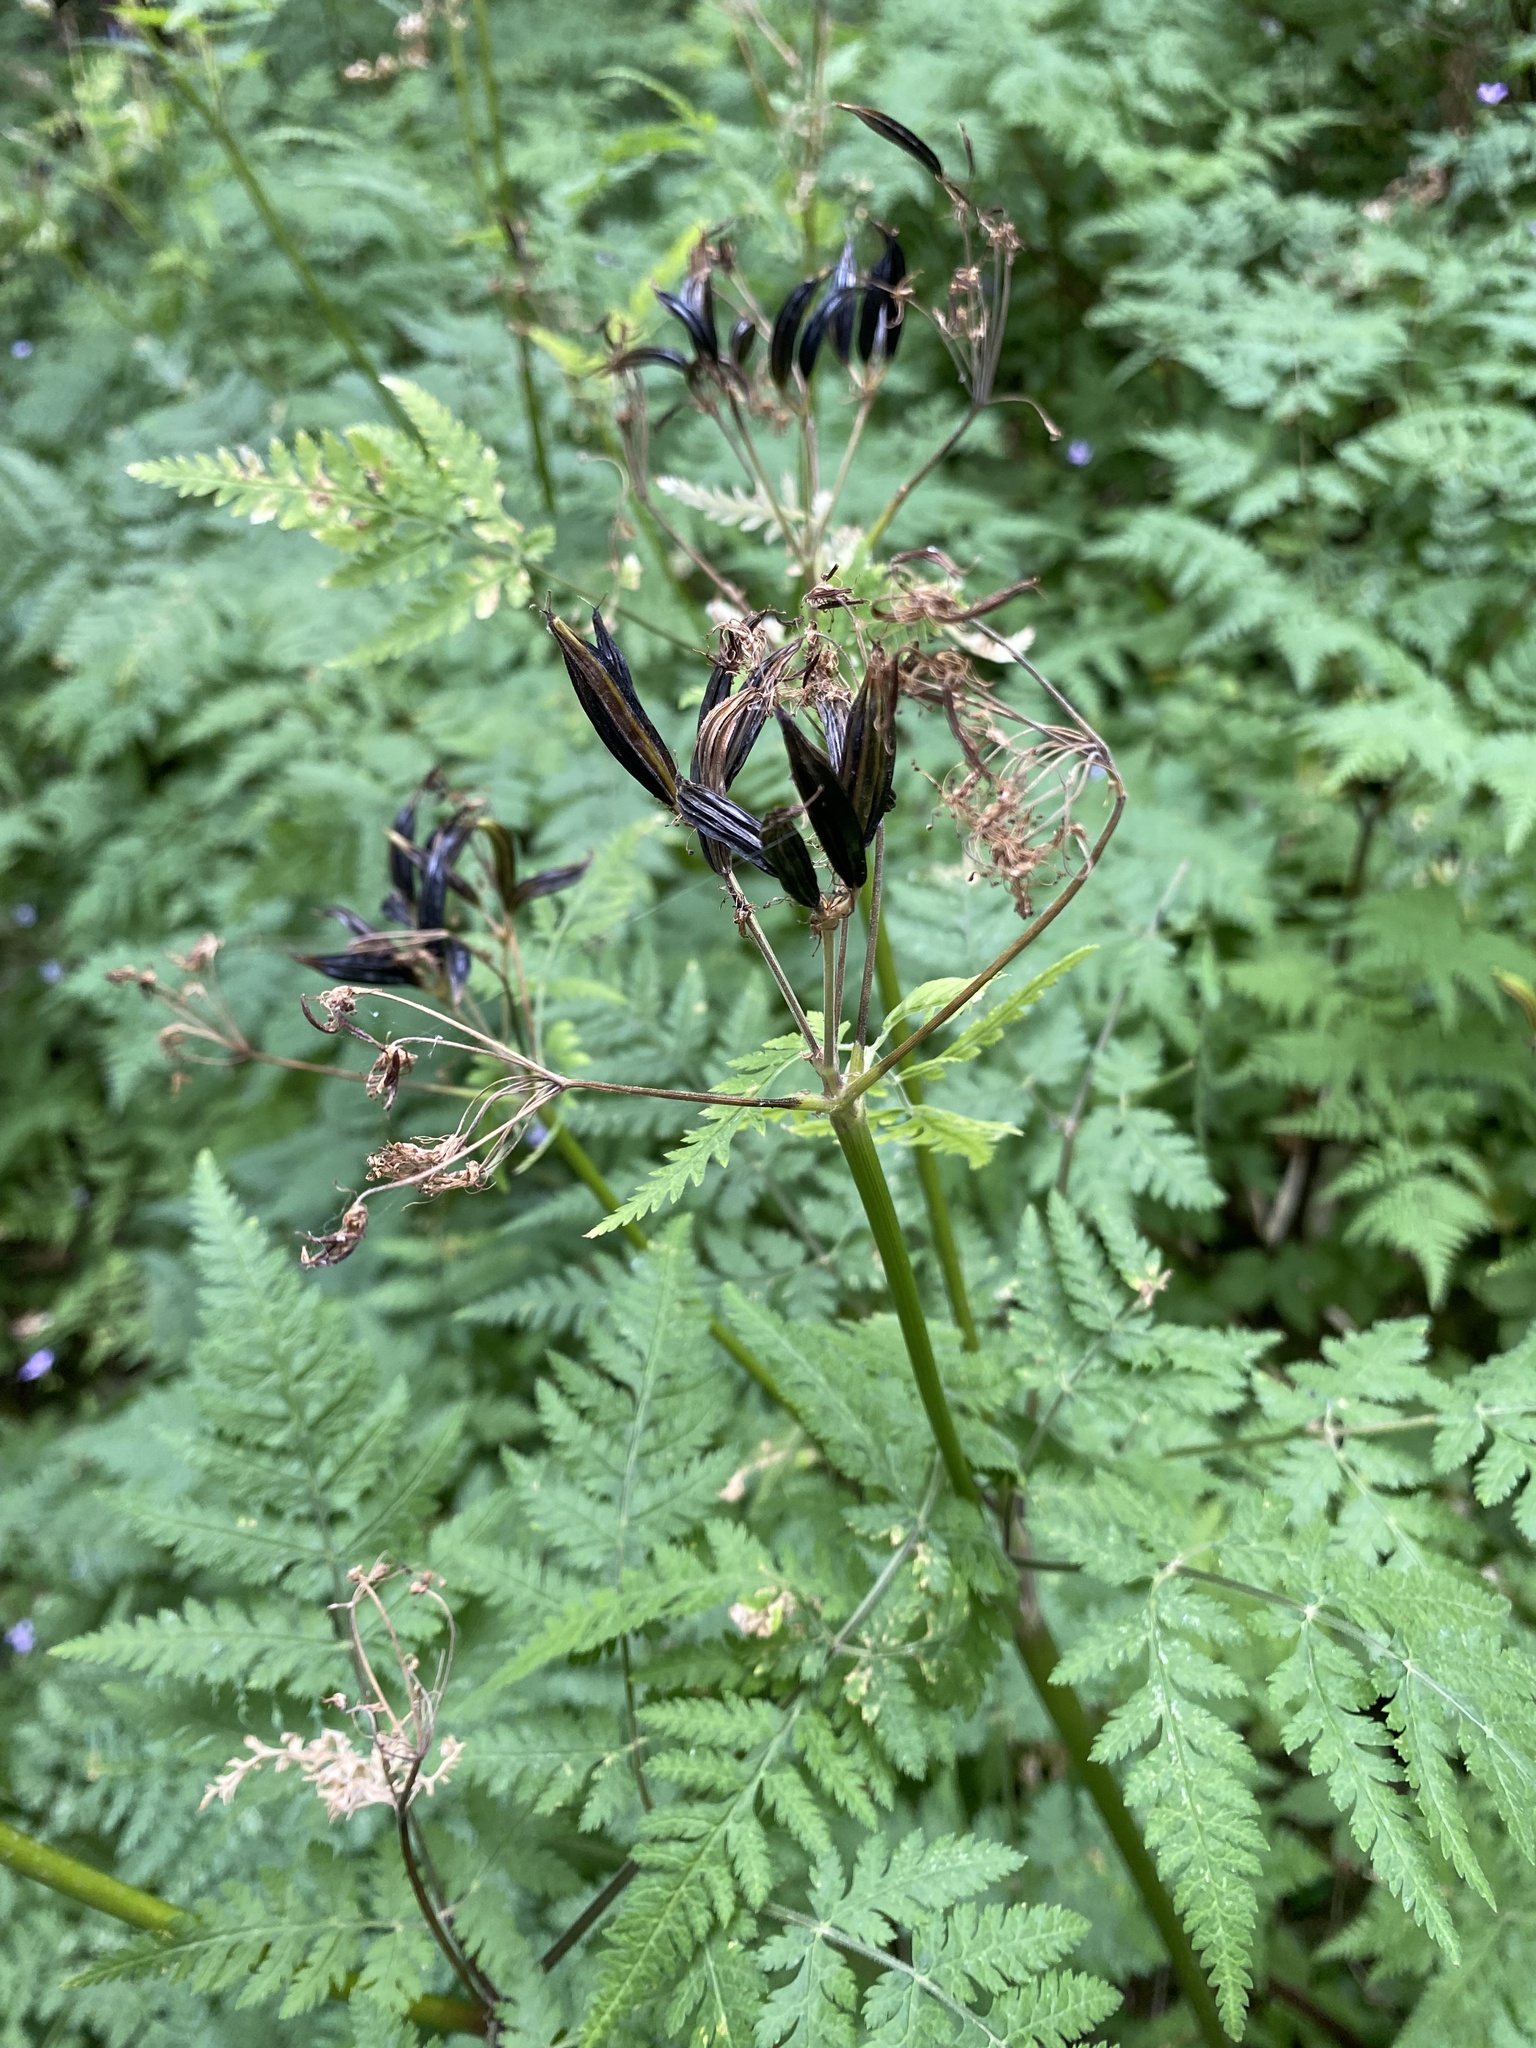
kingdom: Plantae
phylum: Tracheophyta
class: Magnoliopsida
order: Apiales
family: Apiaceae
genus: Myrrhis
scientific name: Myrrhis odorata
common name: Sweet cicely
